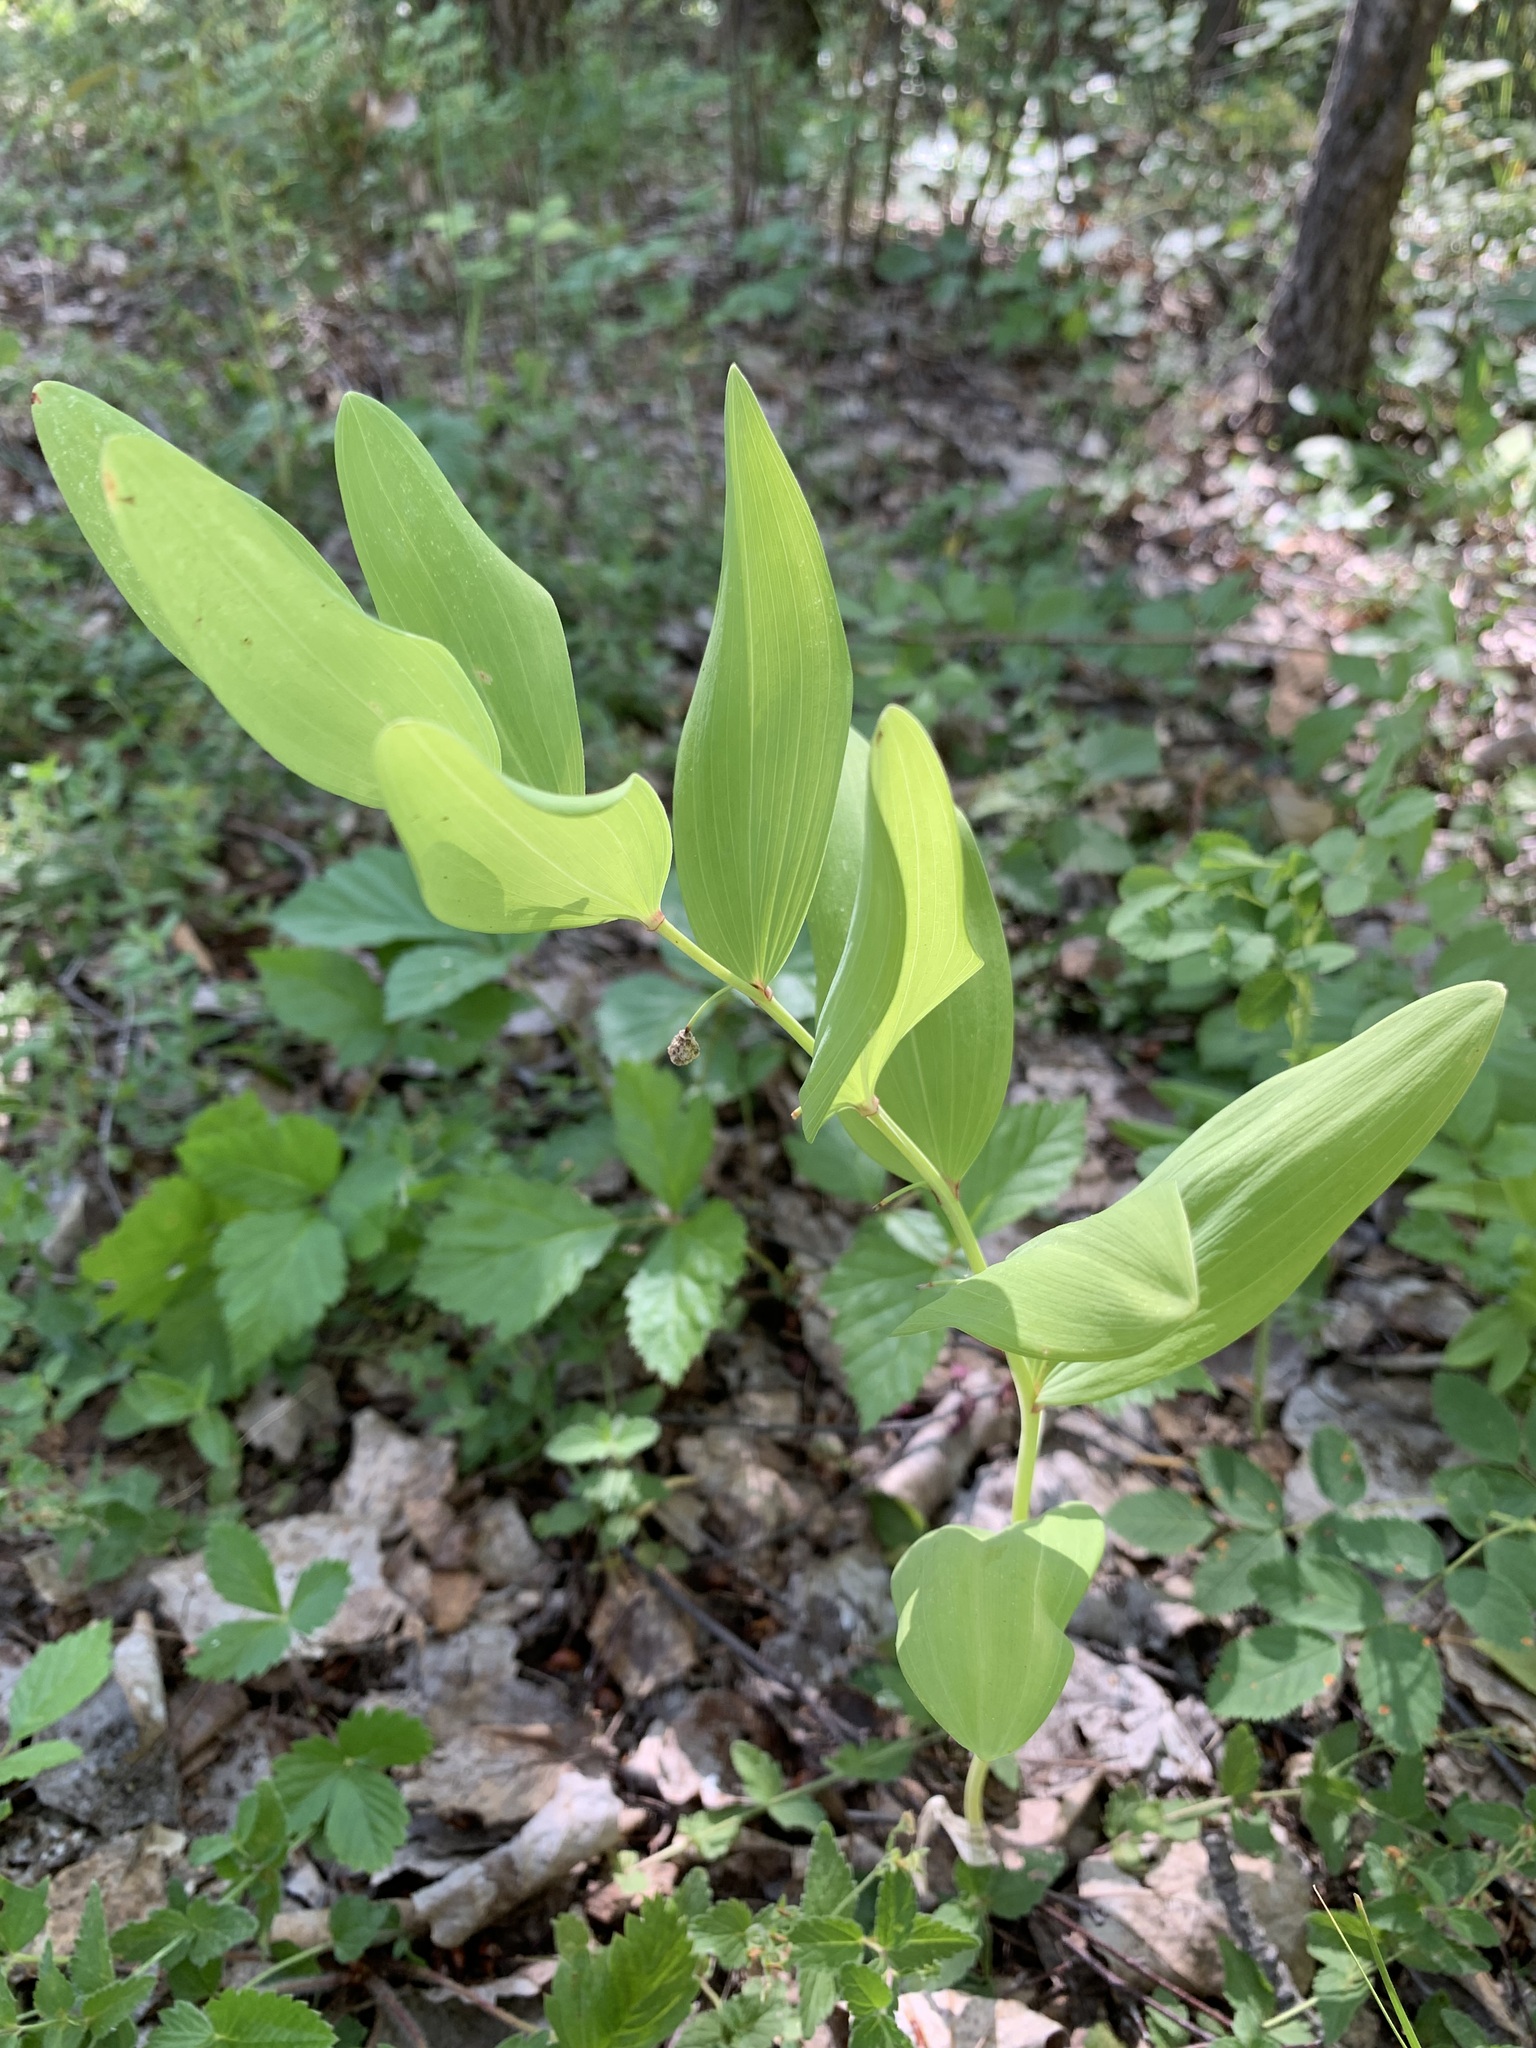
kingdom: Plantae
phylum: Tracheophyta
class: Liliopsida
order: Asparagales
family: Asparagaceae
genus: Polygonatum
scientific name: Polygonatum odoratum
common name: Angular solomon's-seal
